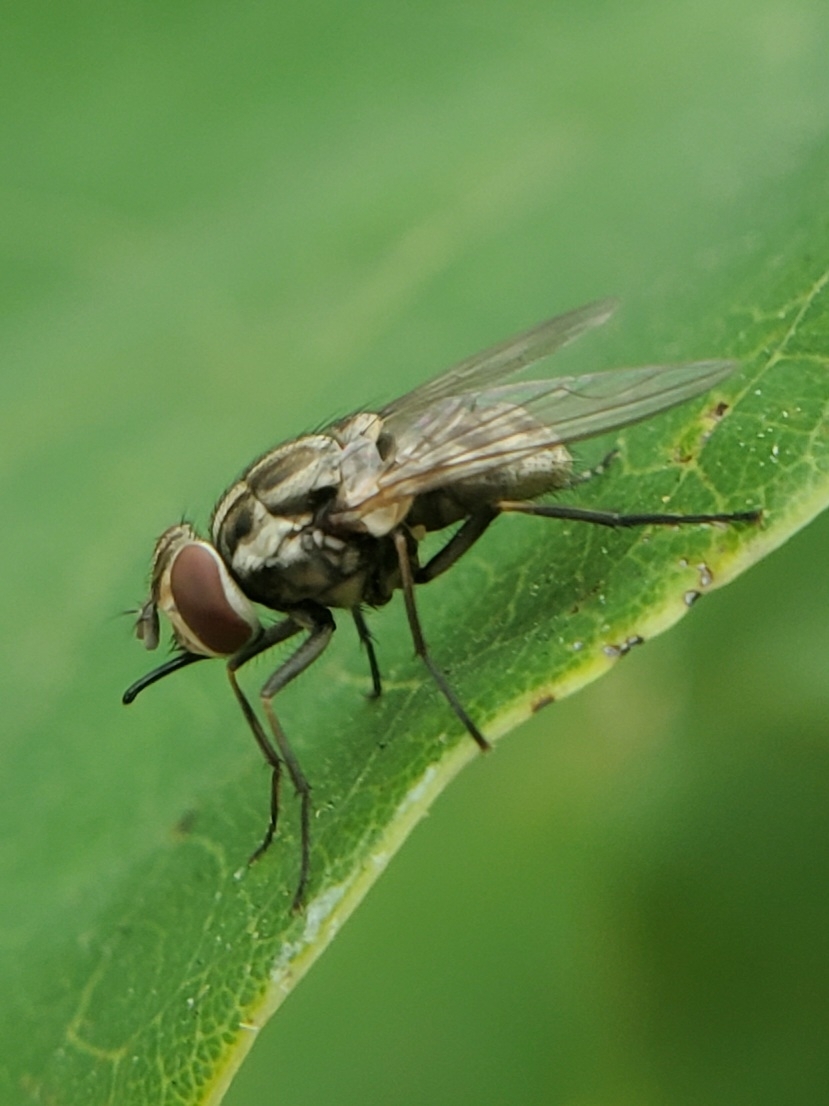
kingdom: Animalia
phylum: Arthropoda
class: Insecta
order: Diptera
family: Muscidae
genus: Stomoxys
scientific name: Stomoxys calcitrans
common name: Stable fly
